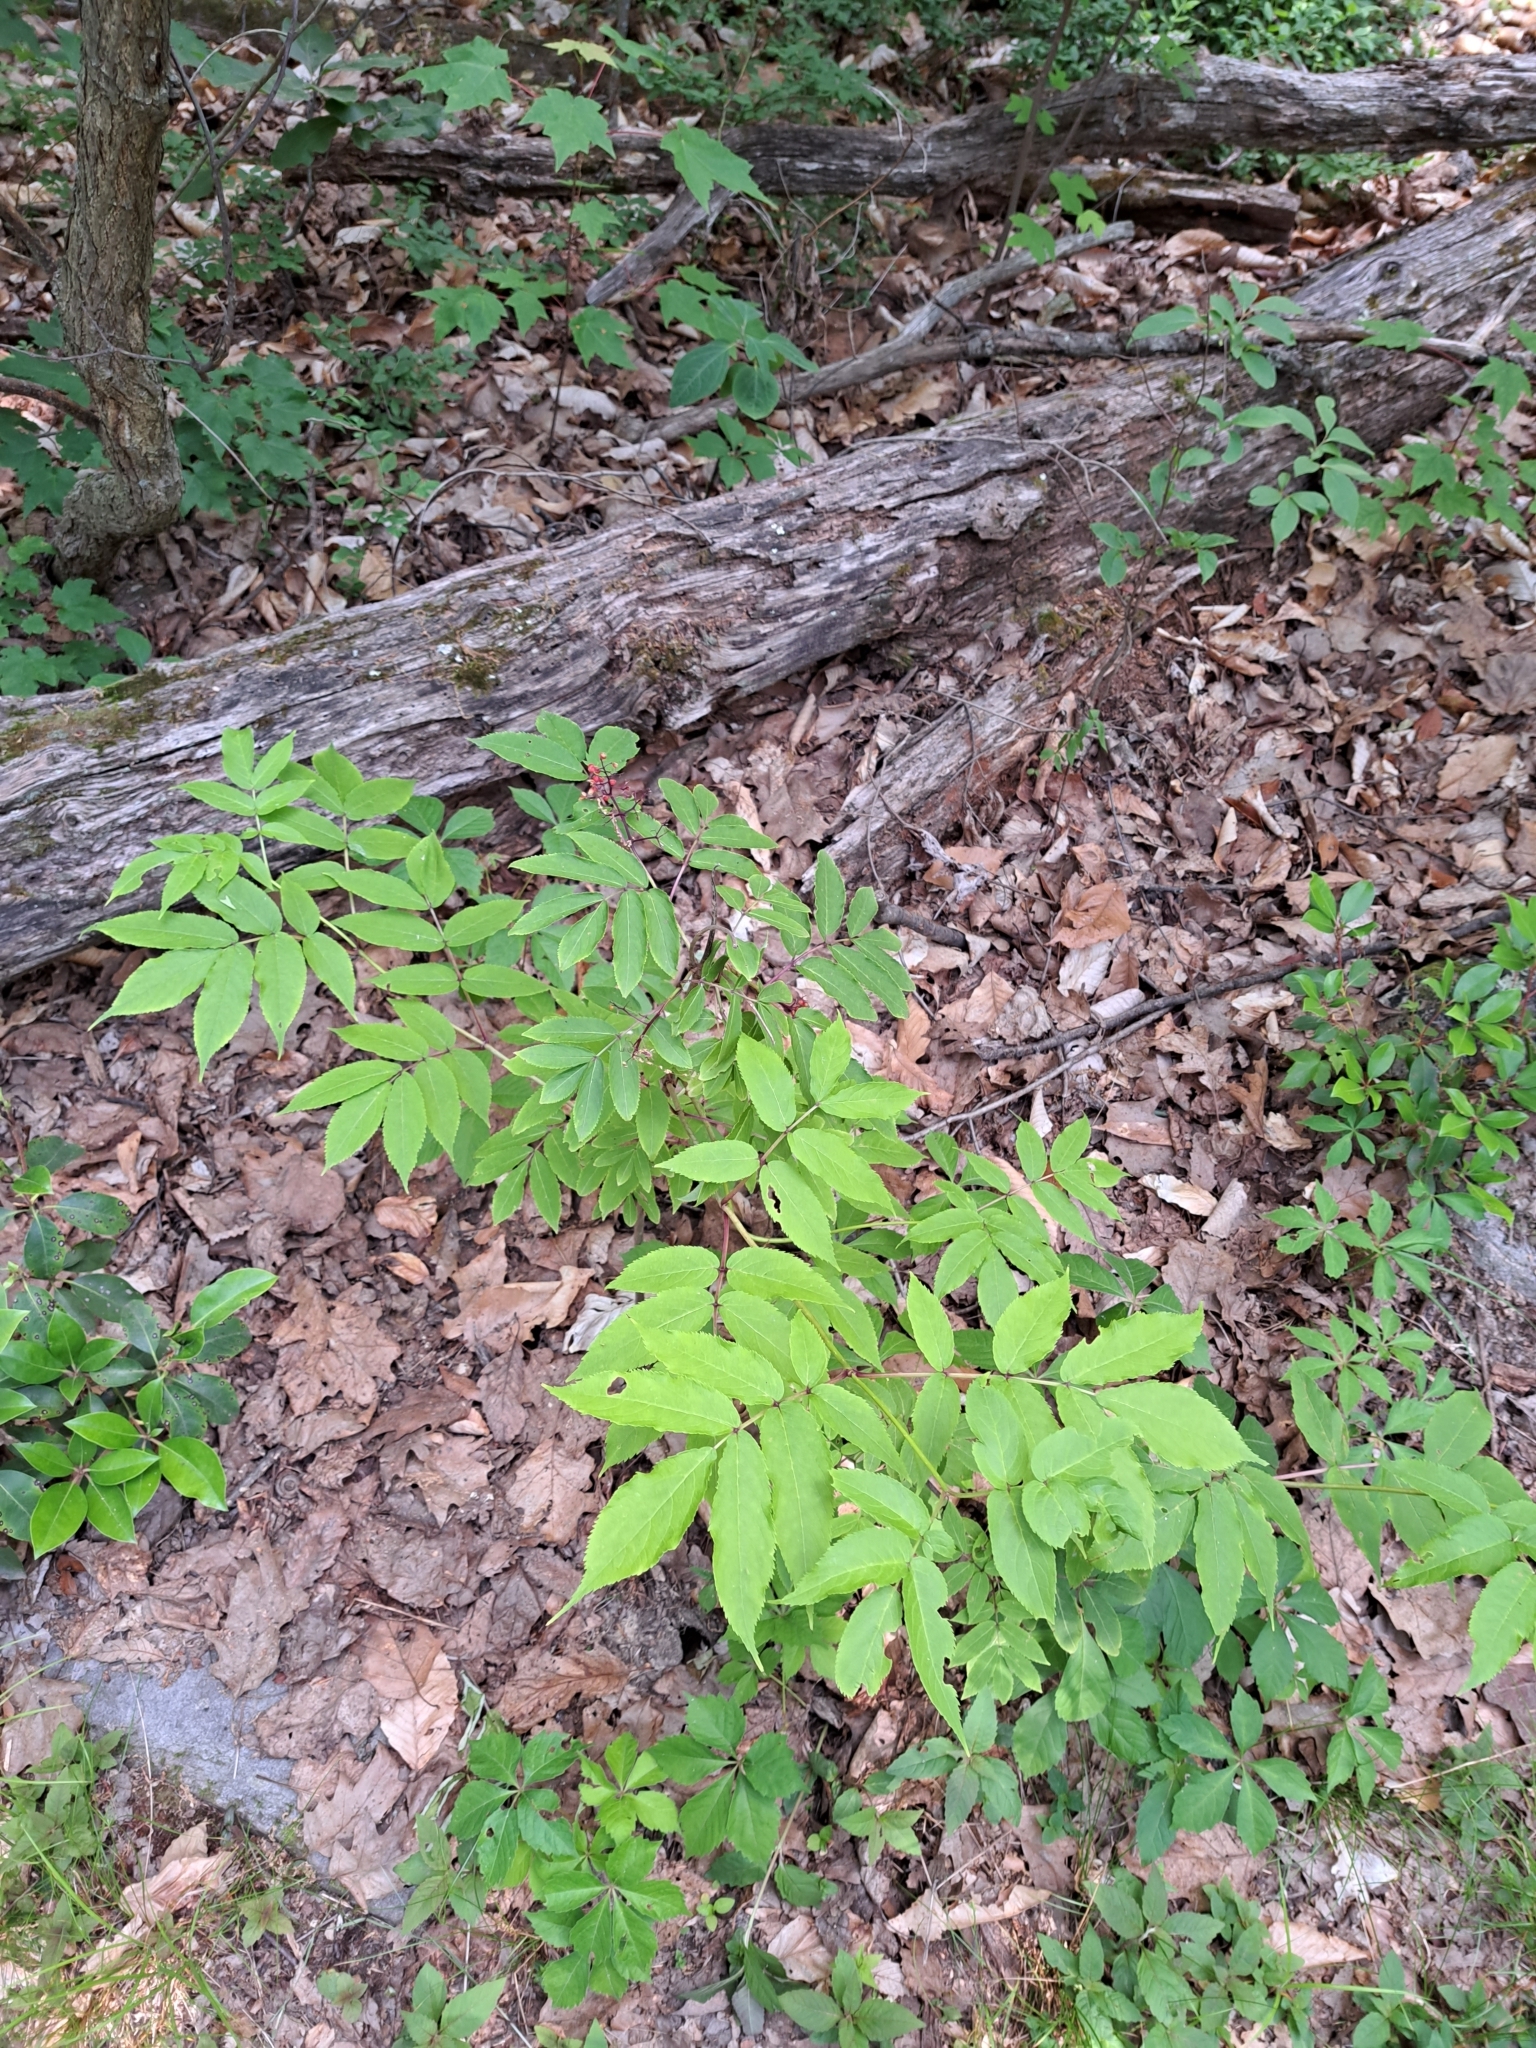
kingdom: Plantae
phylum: Tracheophyta
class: Magnoliopsida
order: Dipsacales
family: Viburnaceae
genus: Sambucus
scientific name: Sambucus racemosa
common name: Red-berried elder
